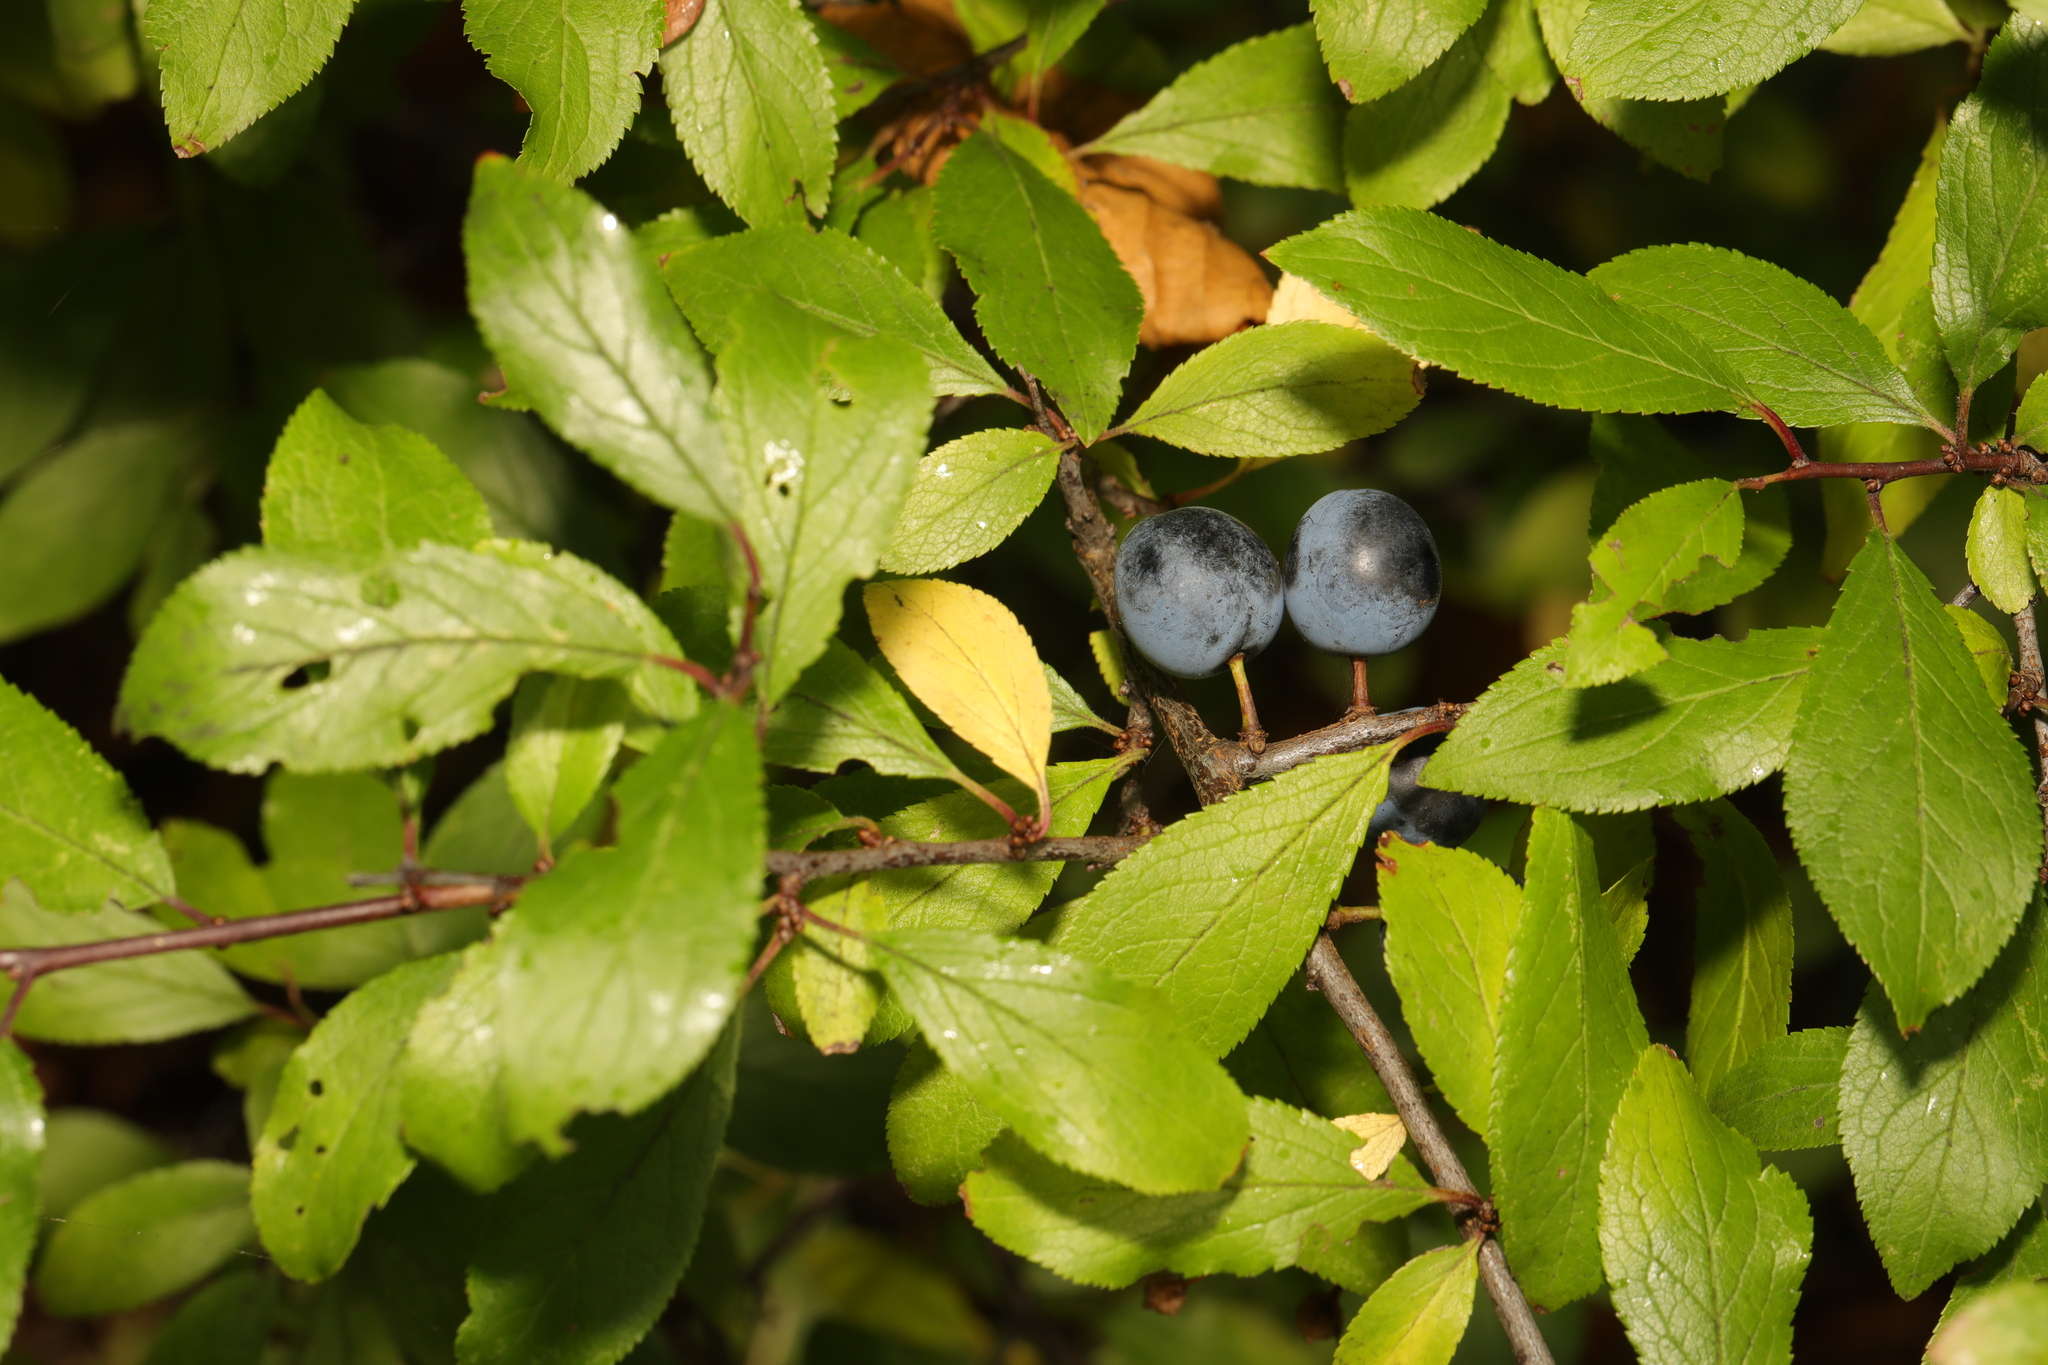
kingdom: Plantae
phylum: Tracheophyta
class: Magnoliopsida
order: Rosales
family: Rosaceae
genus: Prunus
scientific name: Prunus spinosa
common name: Blackthorn
